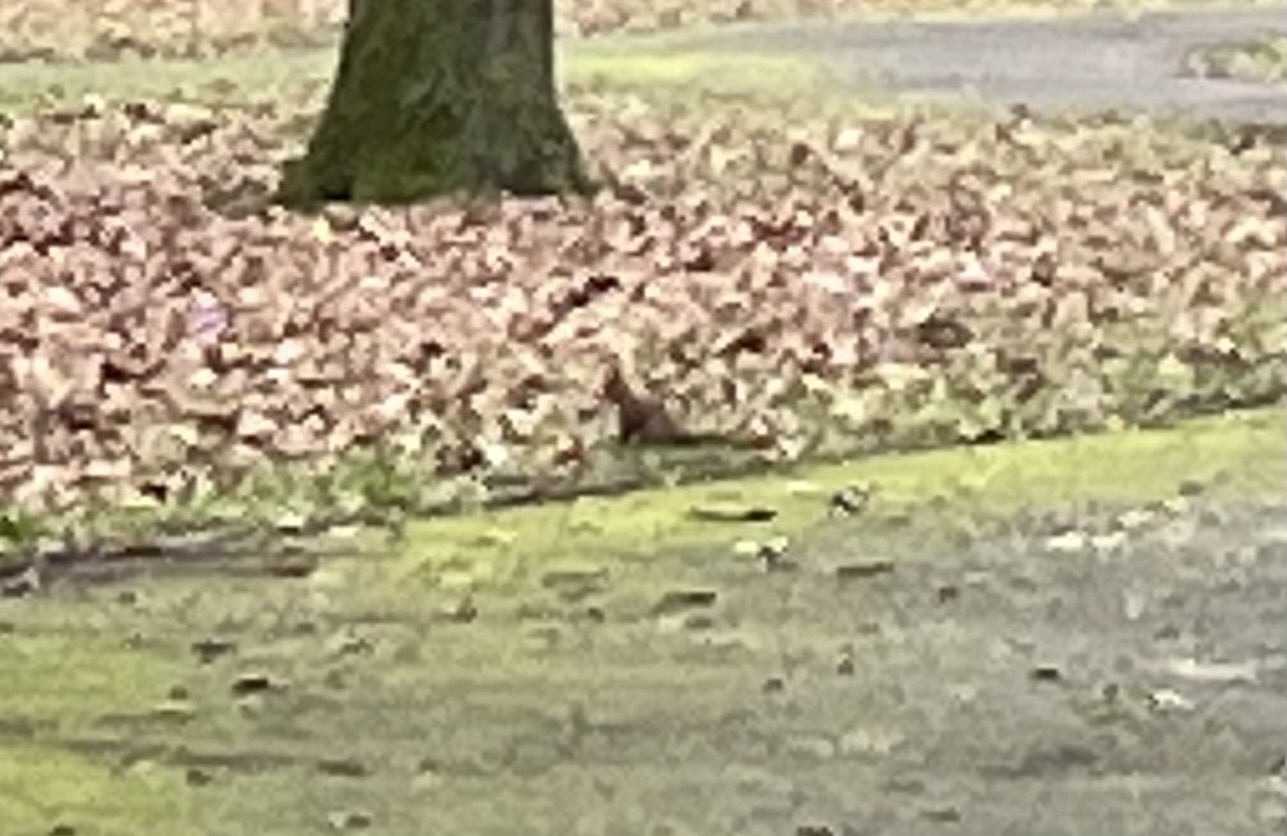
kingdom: Animalia
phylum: Chordata
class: Mammalia
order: Rodentia
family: Sciuridae
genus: Sciurus
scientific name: Sciurus vulgaris
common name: Eurasian red squirrel
